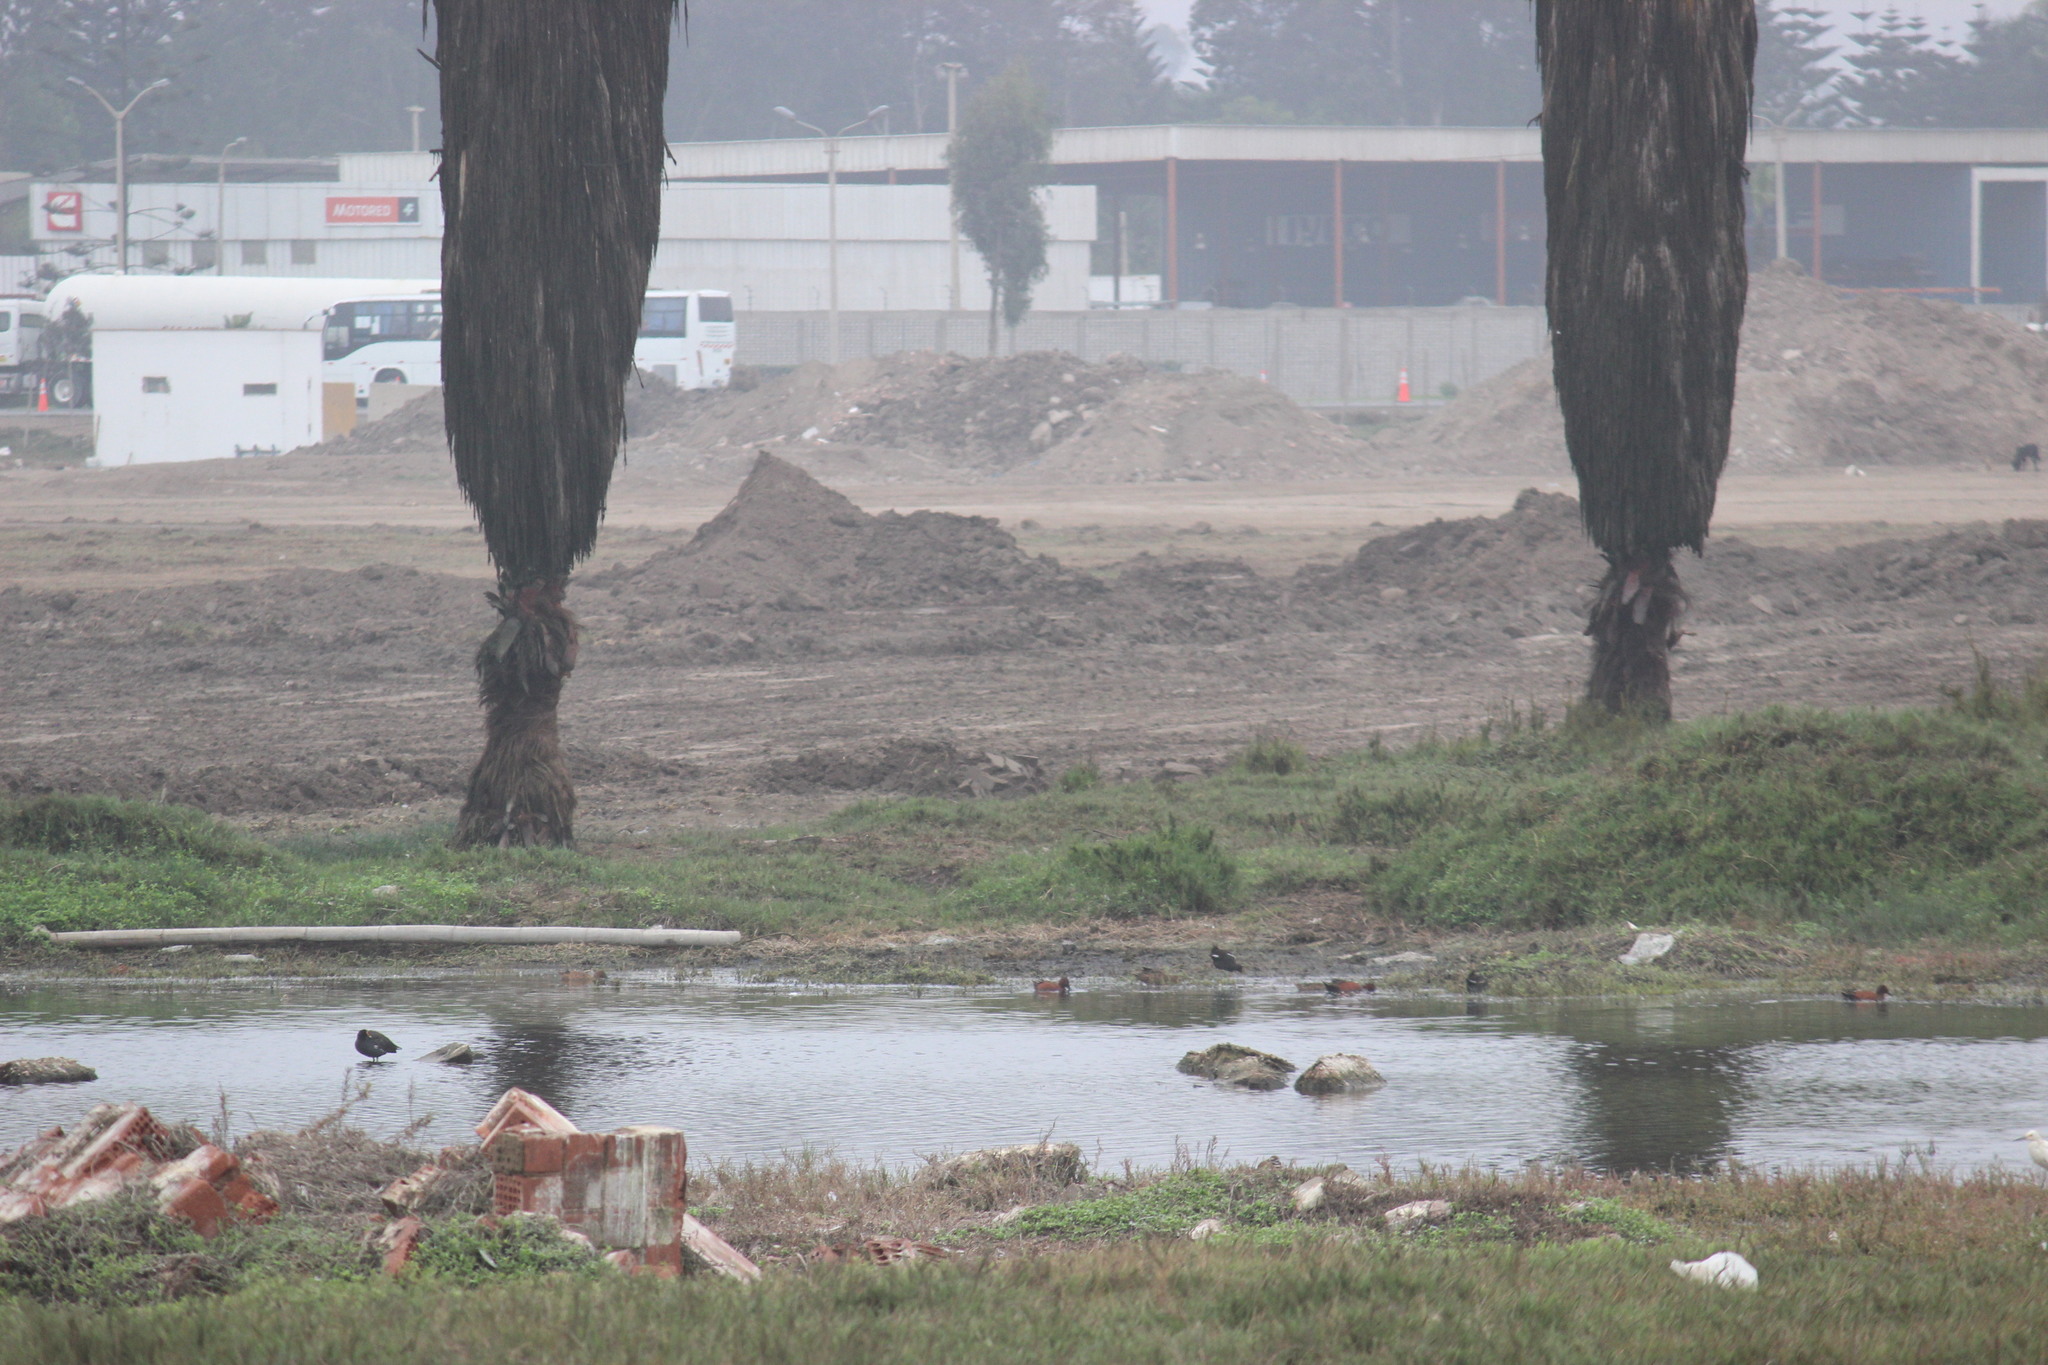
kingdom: Animalia
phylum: Chordata
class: Aves
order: Gruiformes
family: Rallidae
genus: Gallinula
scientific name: Gallinula chloropus
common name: Common moorhen
